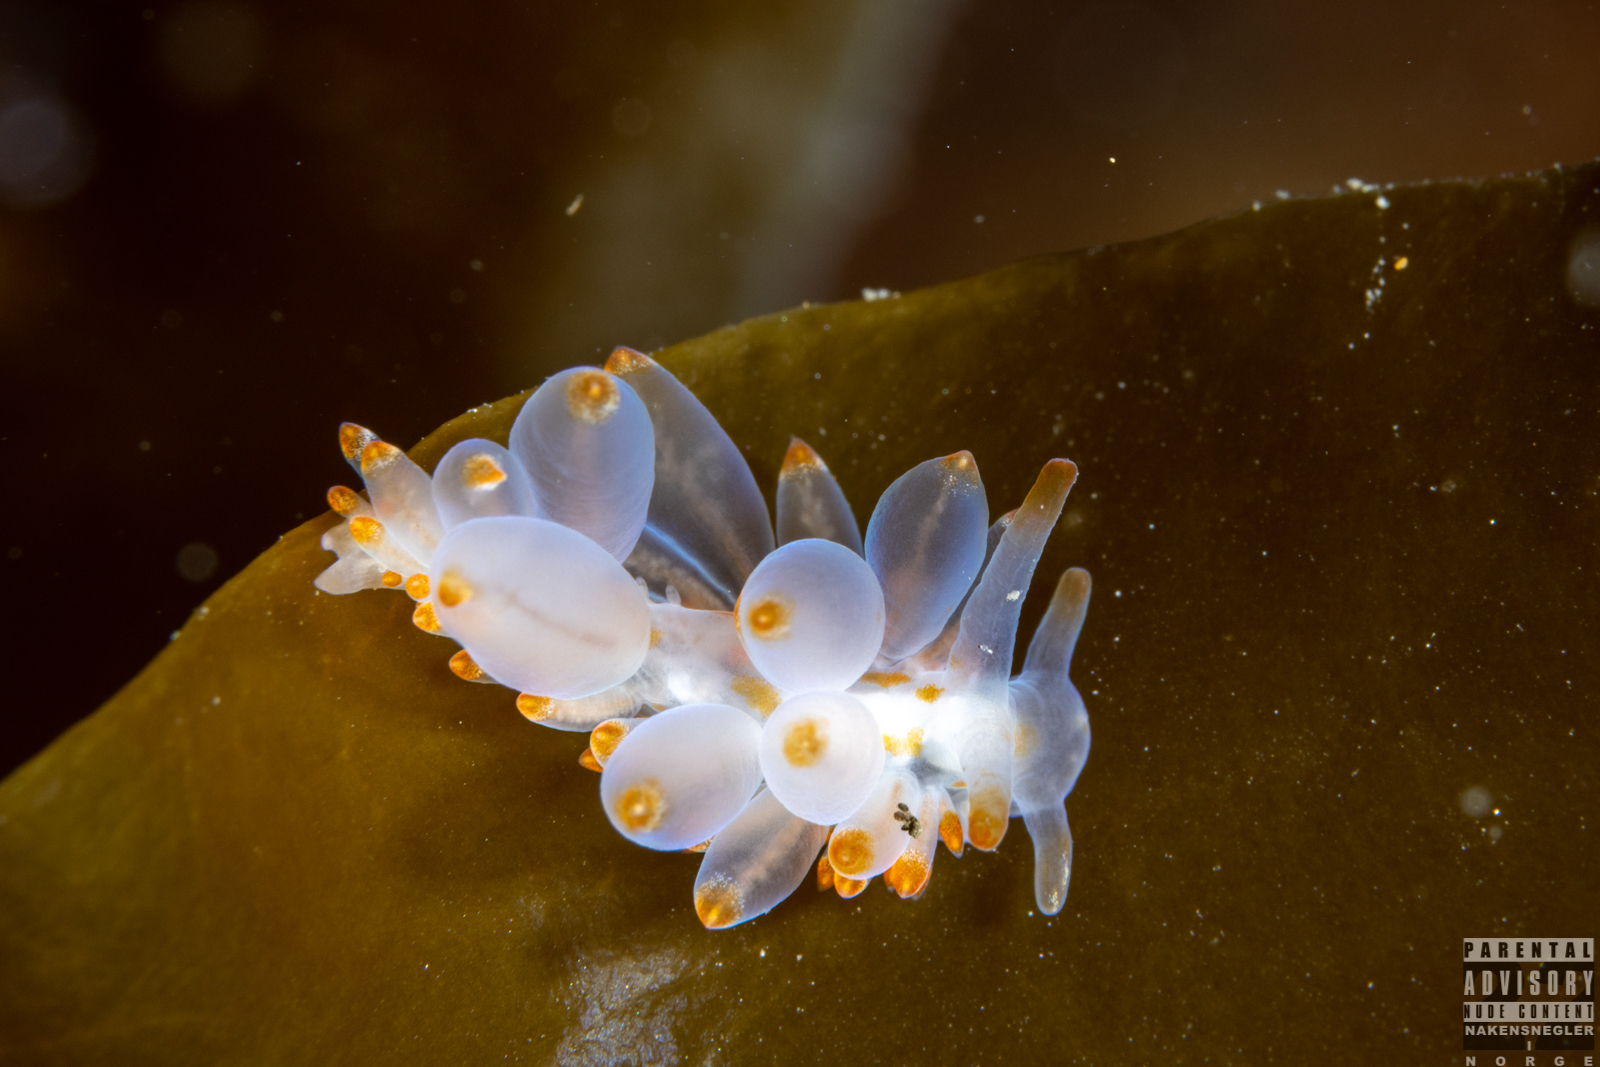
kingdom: Animalia
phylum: Mollusca
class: Gastropoda
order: Nudibranchia
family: Eubranchidae
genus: Amphorina
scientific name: Amphorina farrani
